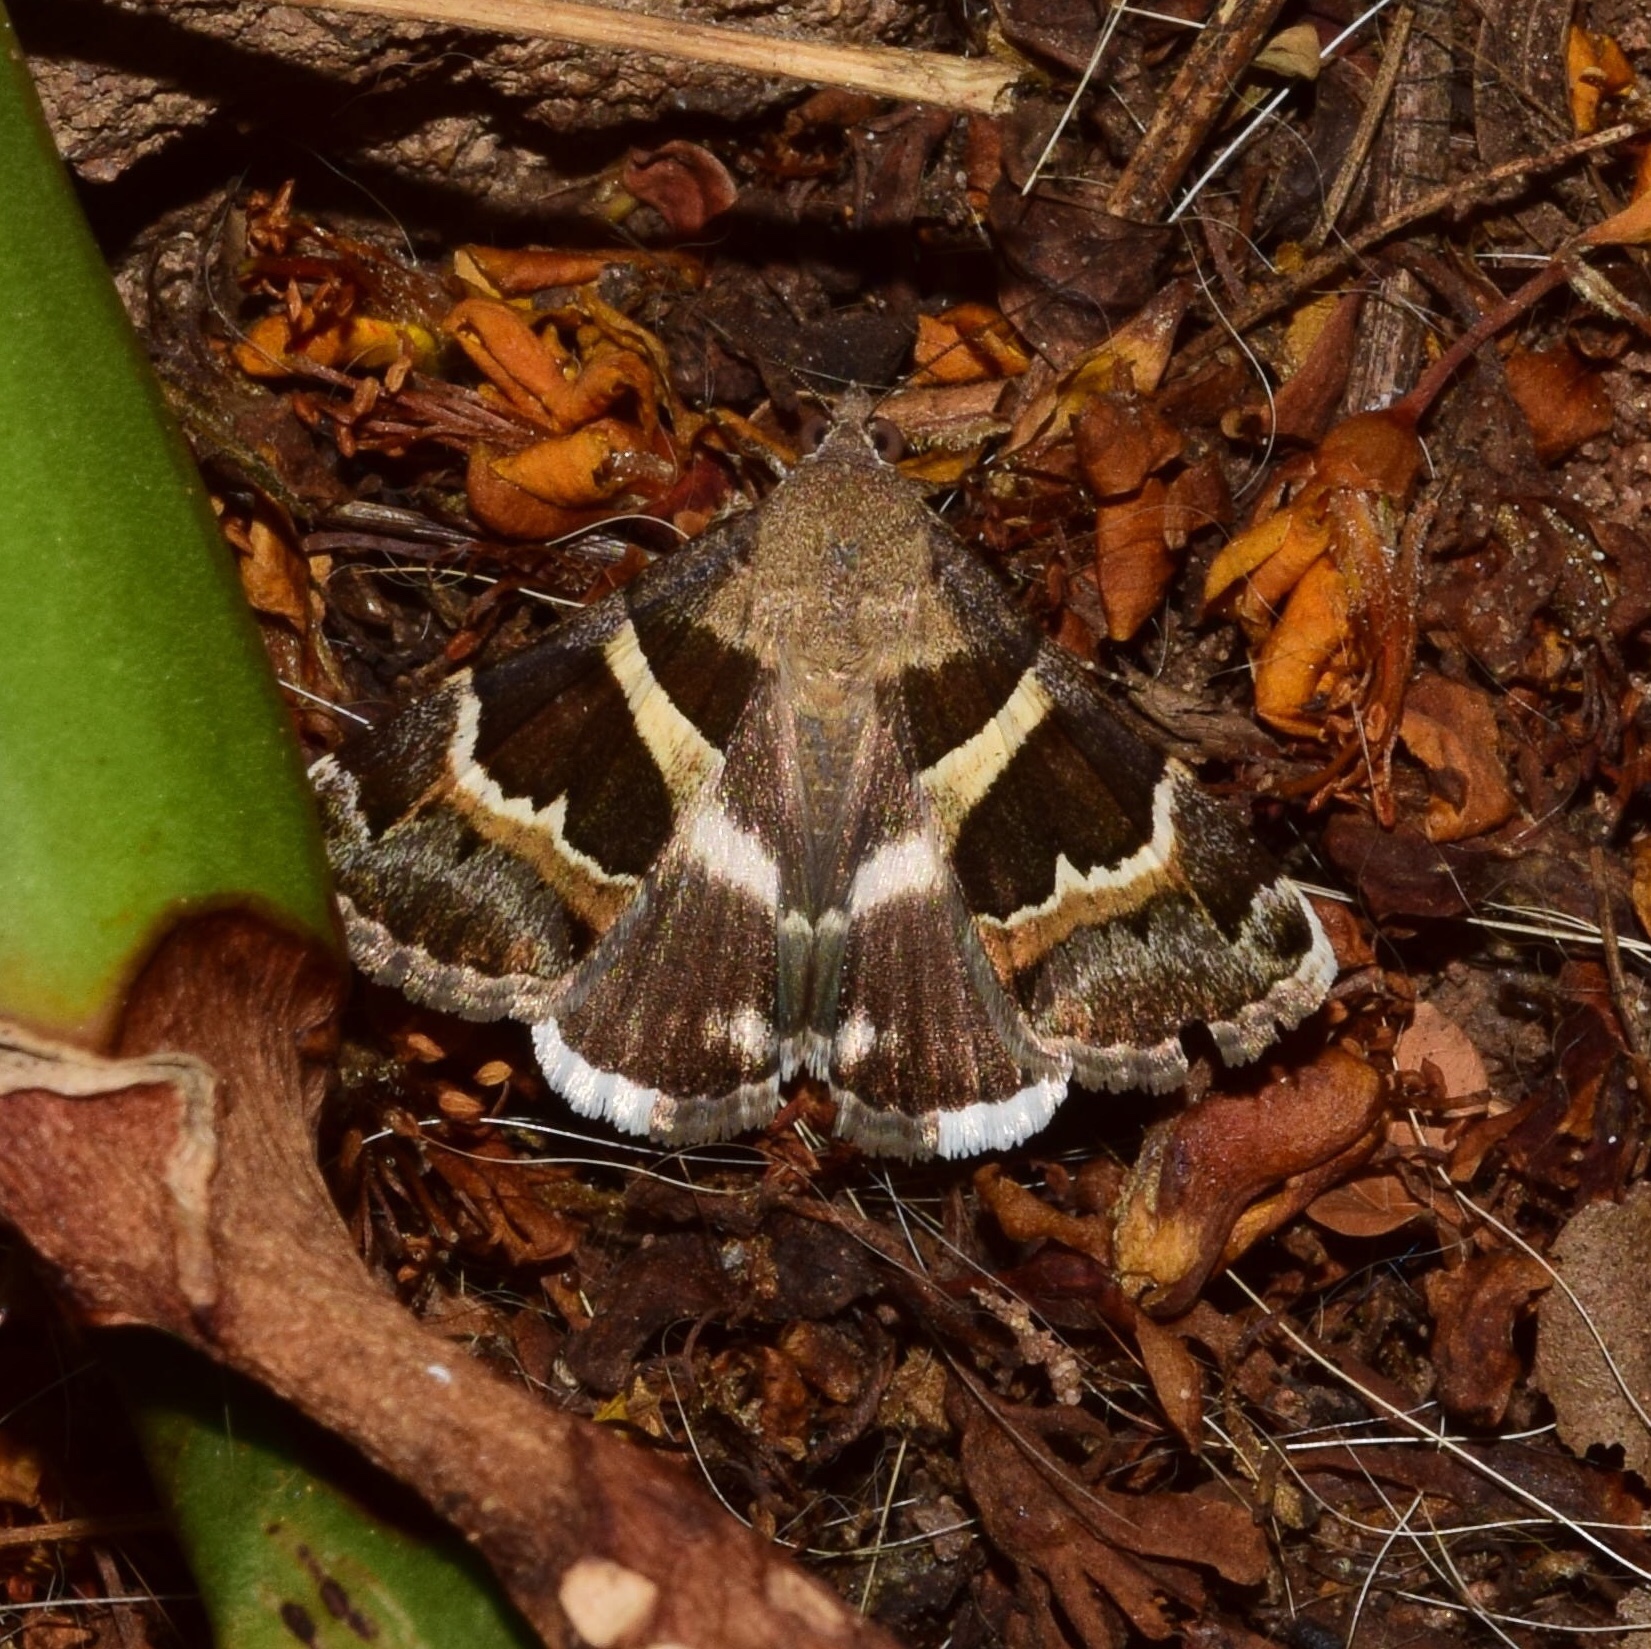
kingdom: Animalia
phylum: Arthropoda
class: Insecta
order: Lepidoptera
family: Erebidae
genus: Grammodes
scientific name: Grammodes stolida
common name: Geometrician
